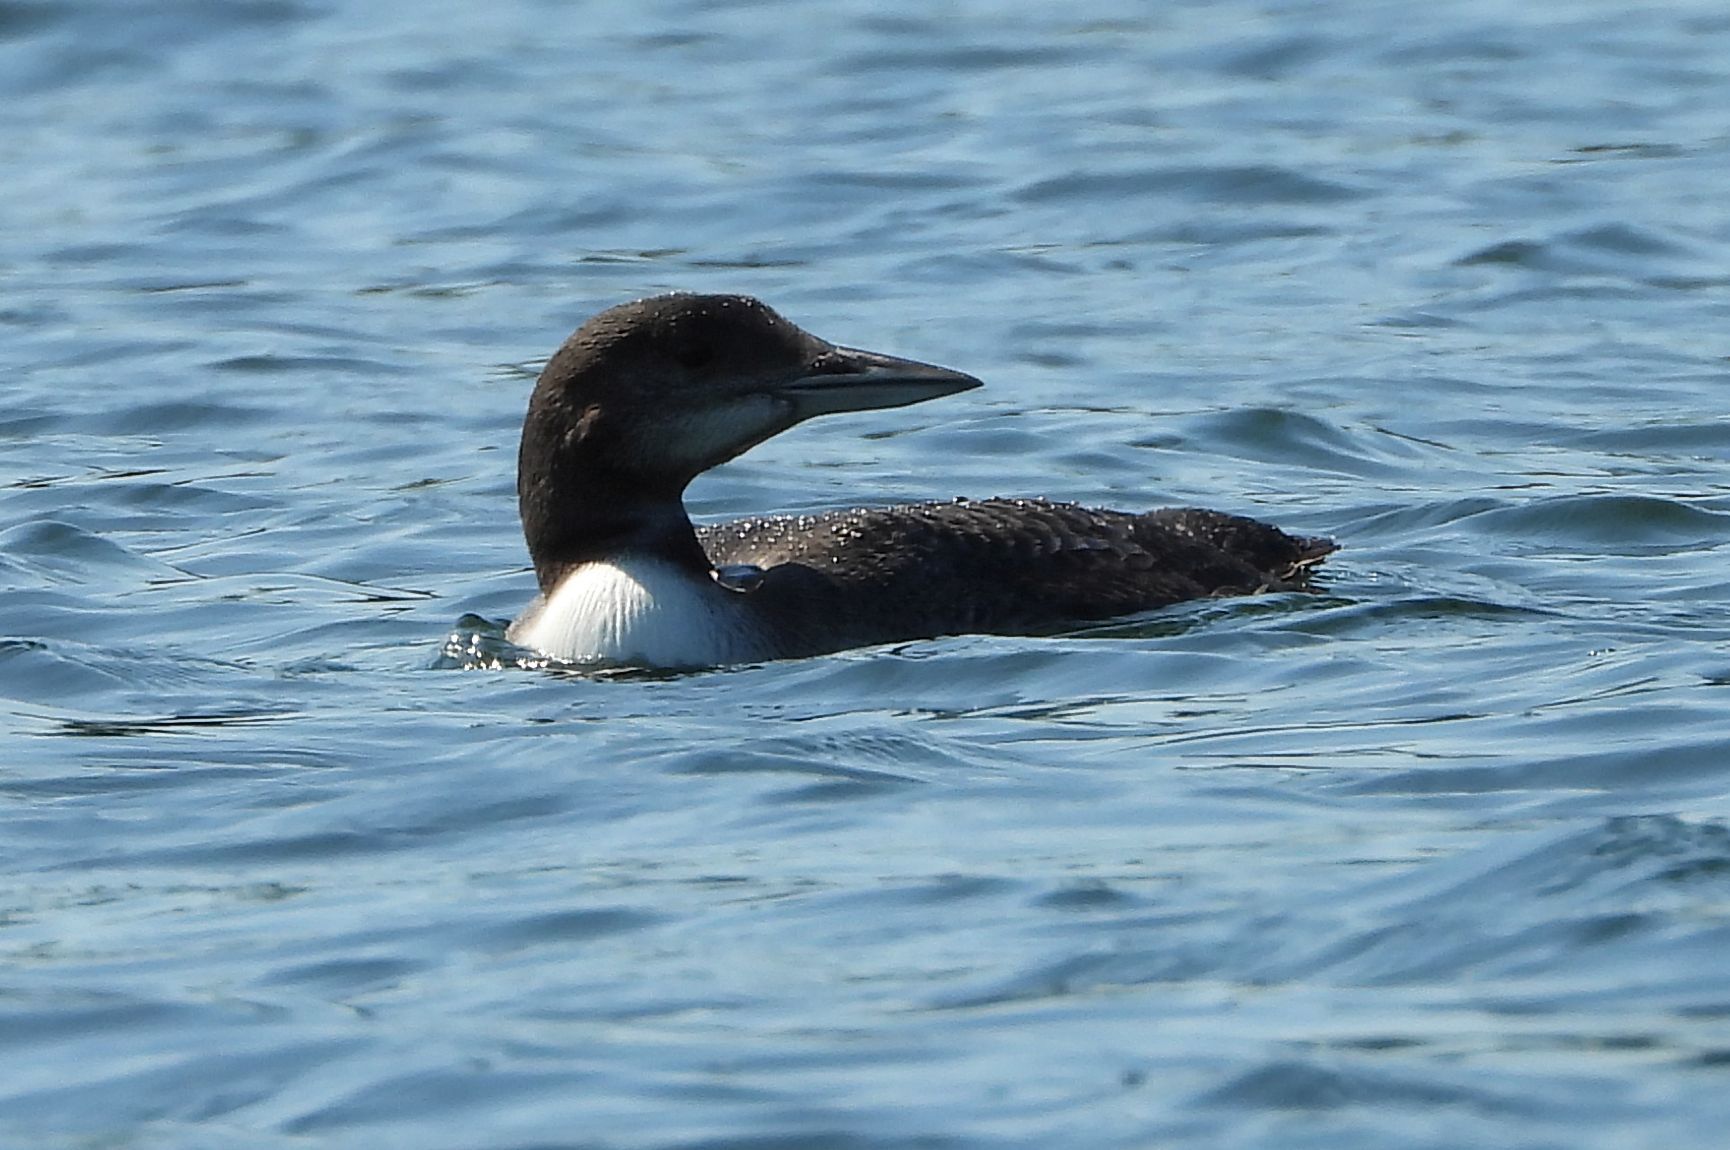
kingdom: Animalia
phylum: Chordata
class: Aves
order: Gaviiformes
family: Gaviidae
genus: Gavia
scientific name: Gavia immer
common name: Common loon
